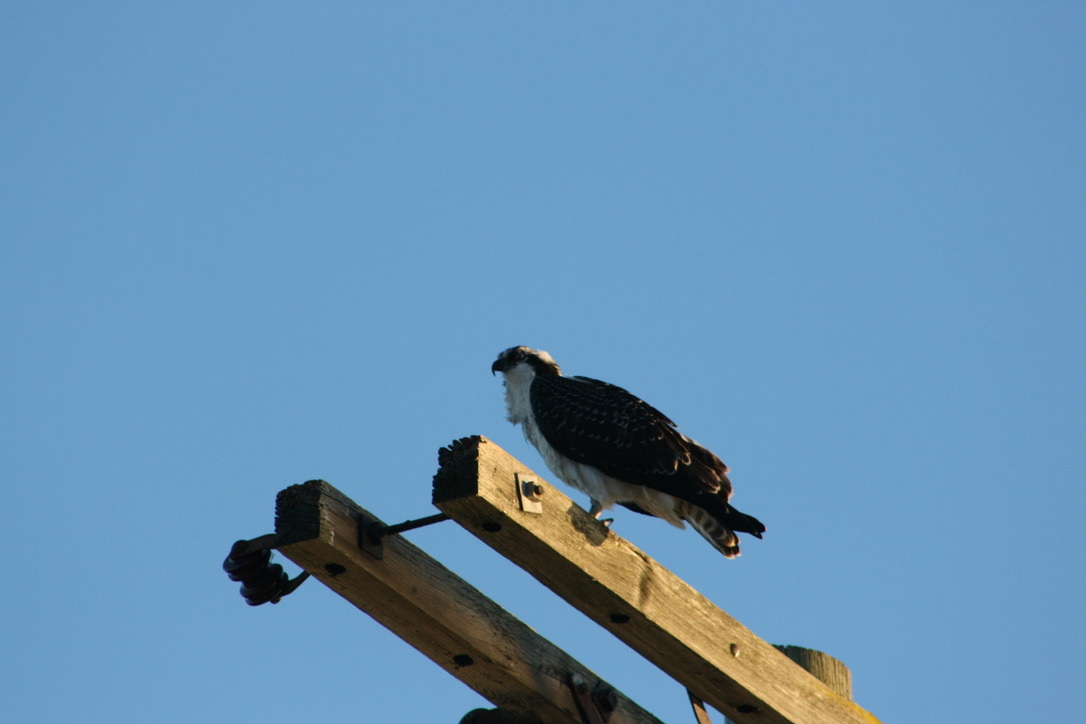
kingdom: Animalia
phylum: Chordata
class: Aves
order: Accipitriformes
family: Pandionidae
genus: Pandion
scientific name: Pandion haliaetus
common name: Osprey
